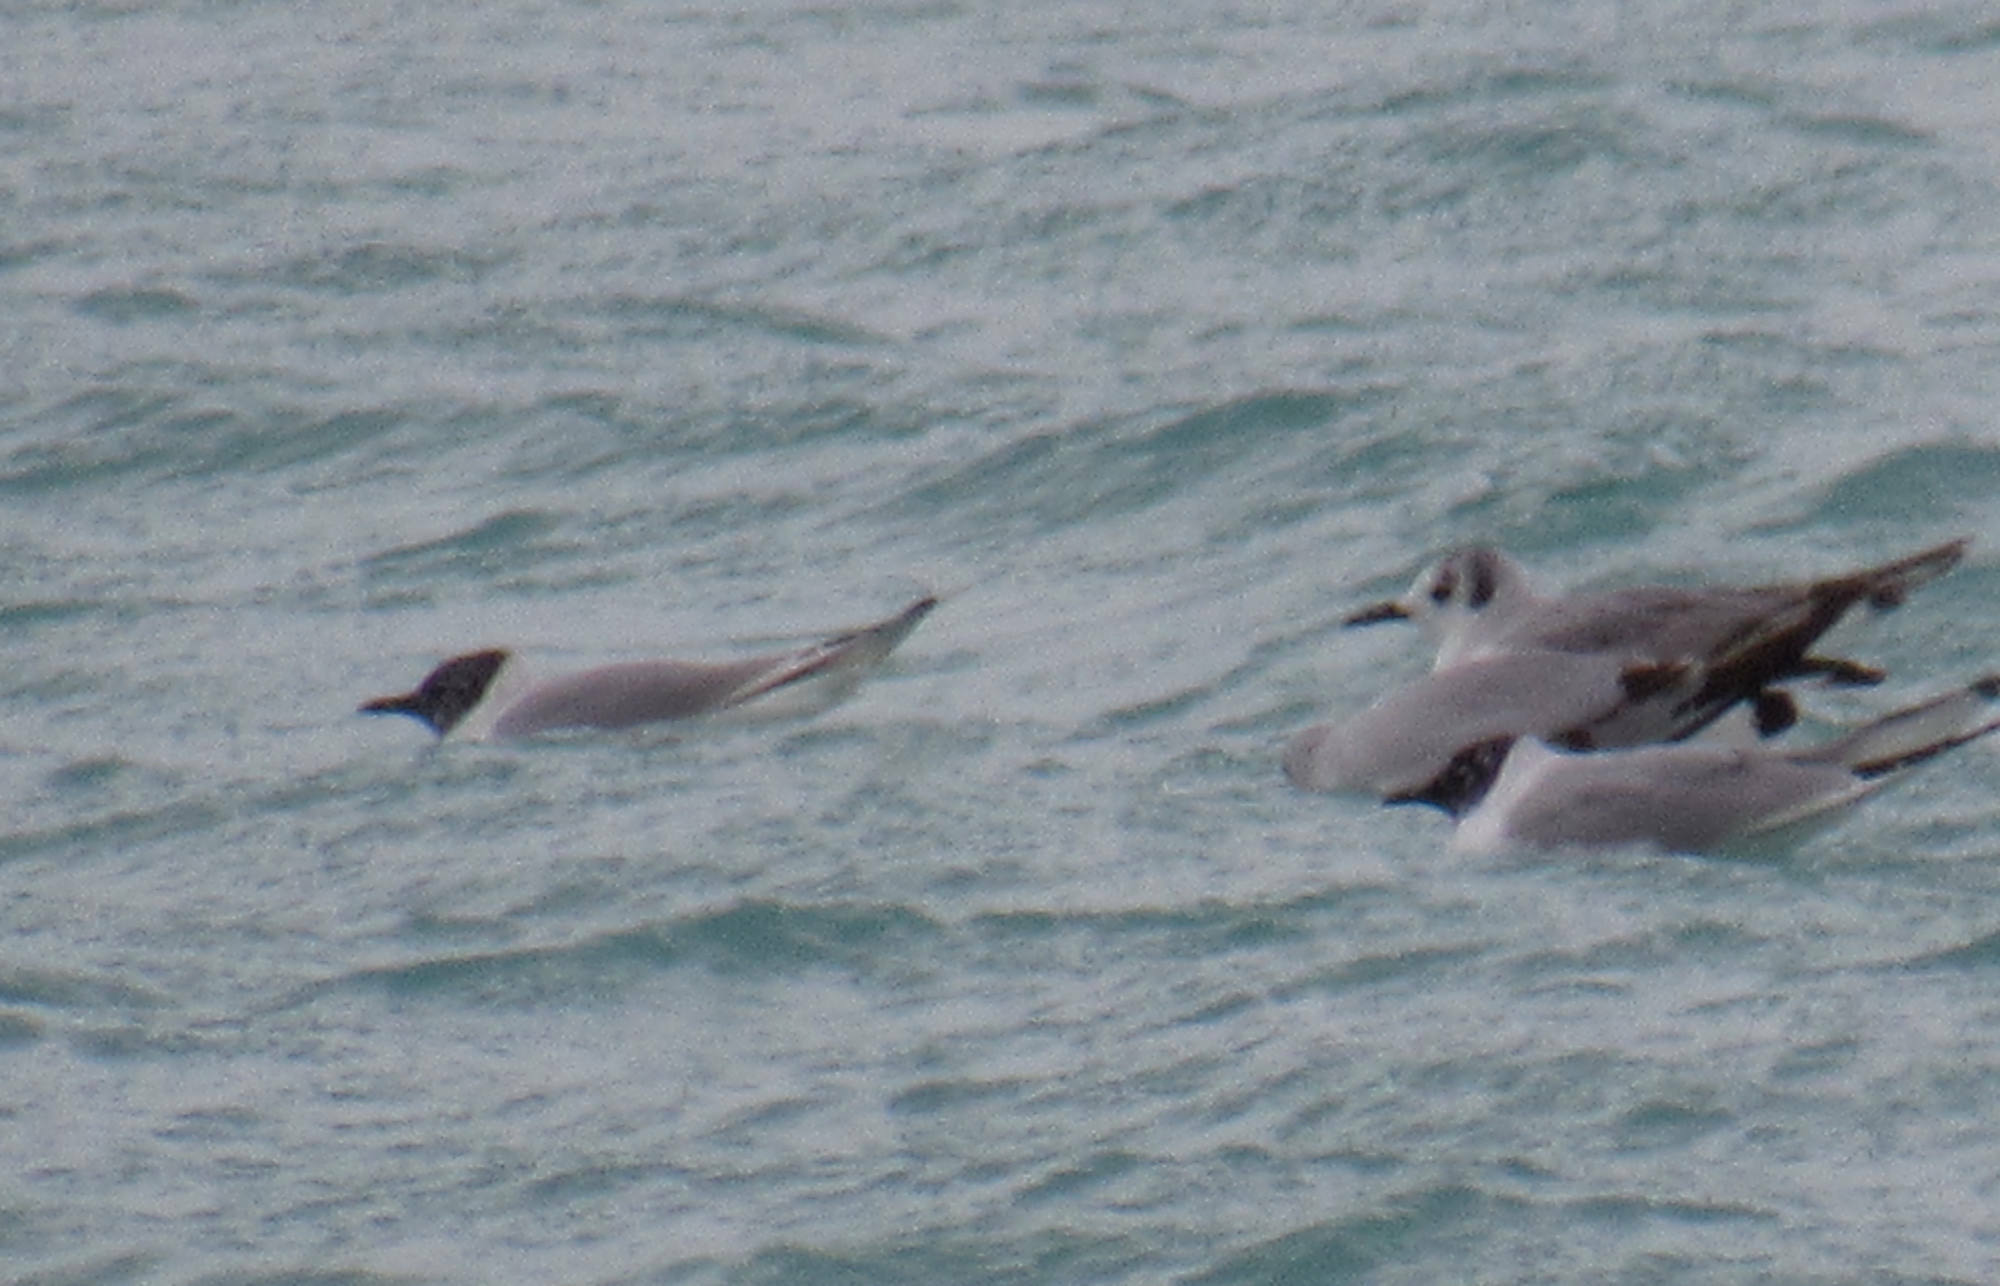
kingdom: Animalia
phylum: Chordata
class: Aves
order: Charadriiformes
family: Laridae
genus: Chroicocephalus
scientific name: Chroicocephalus philadelphia
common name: Bonaparte's gull
